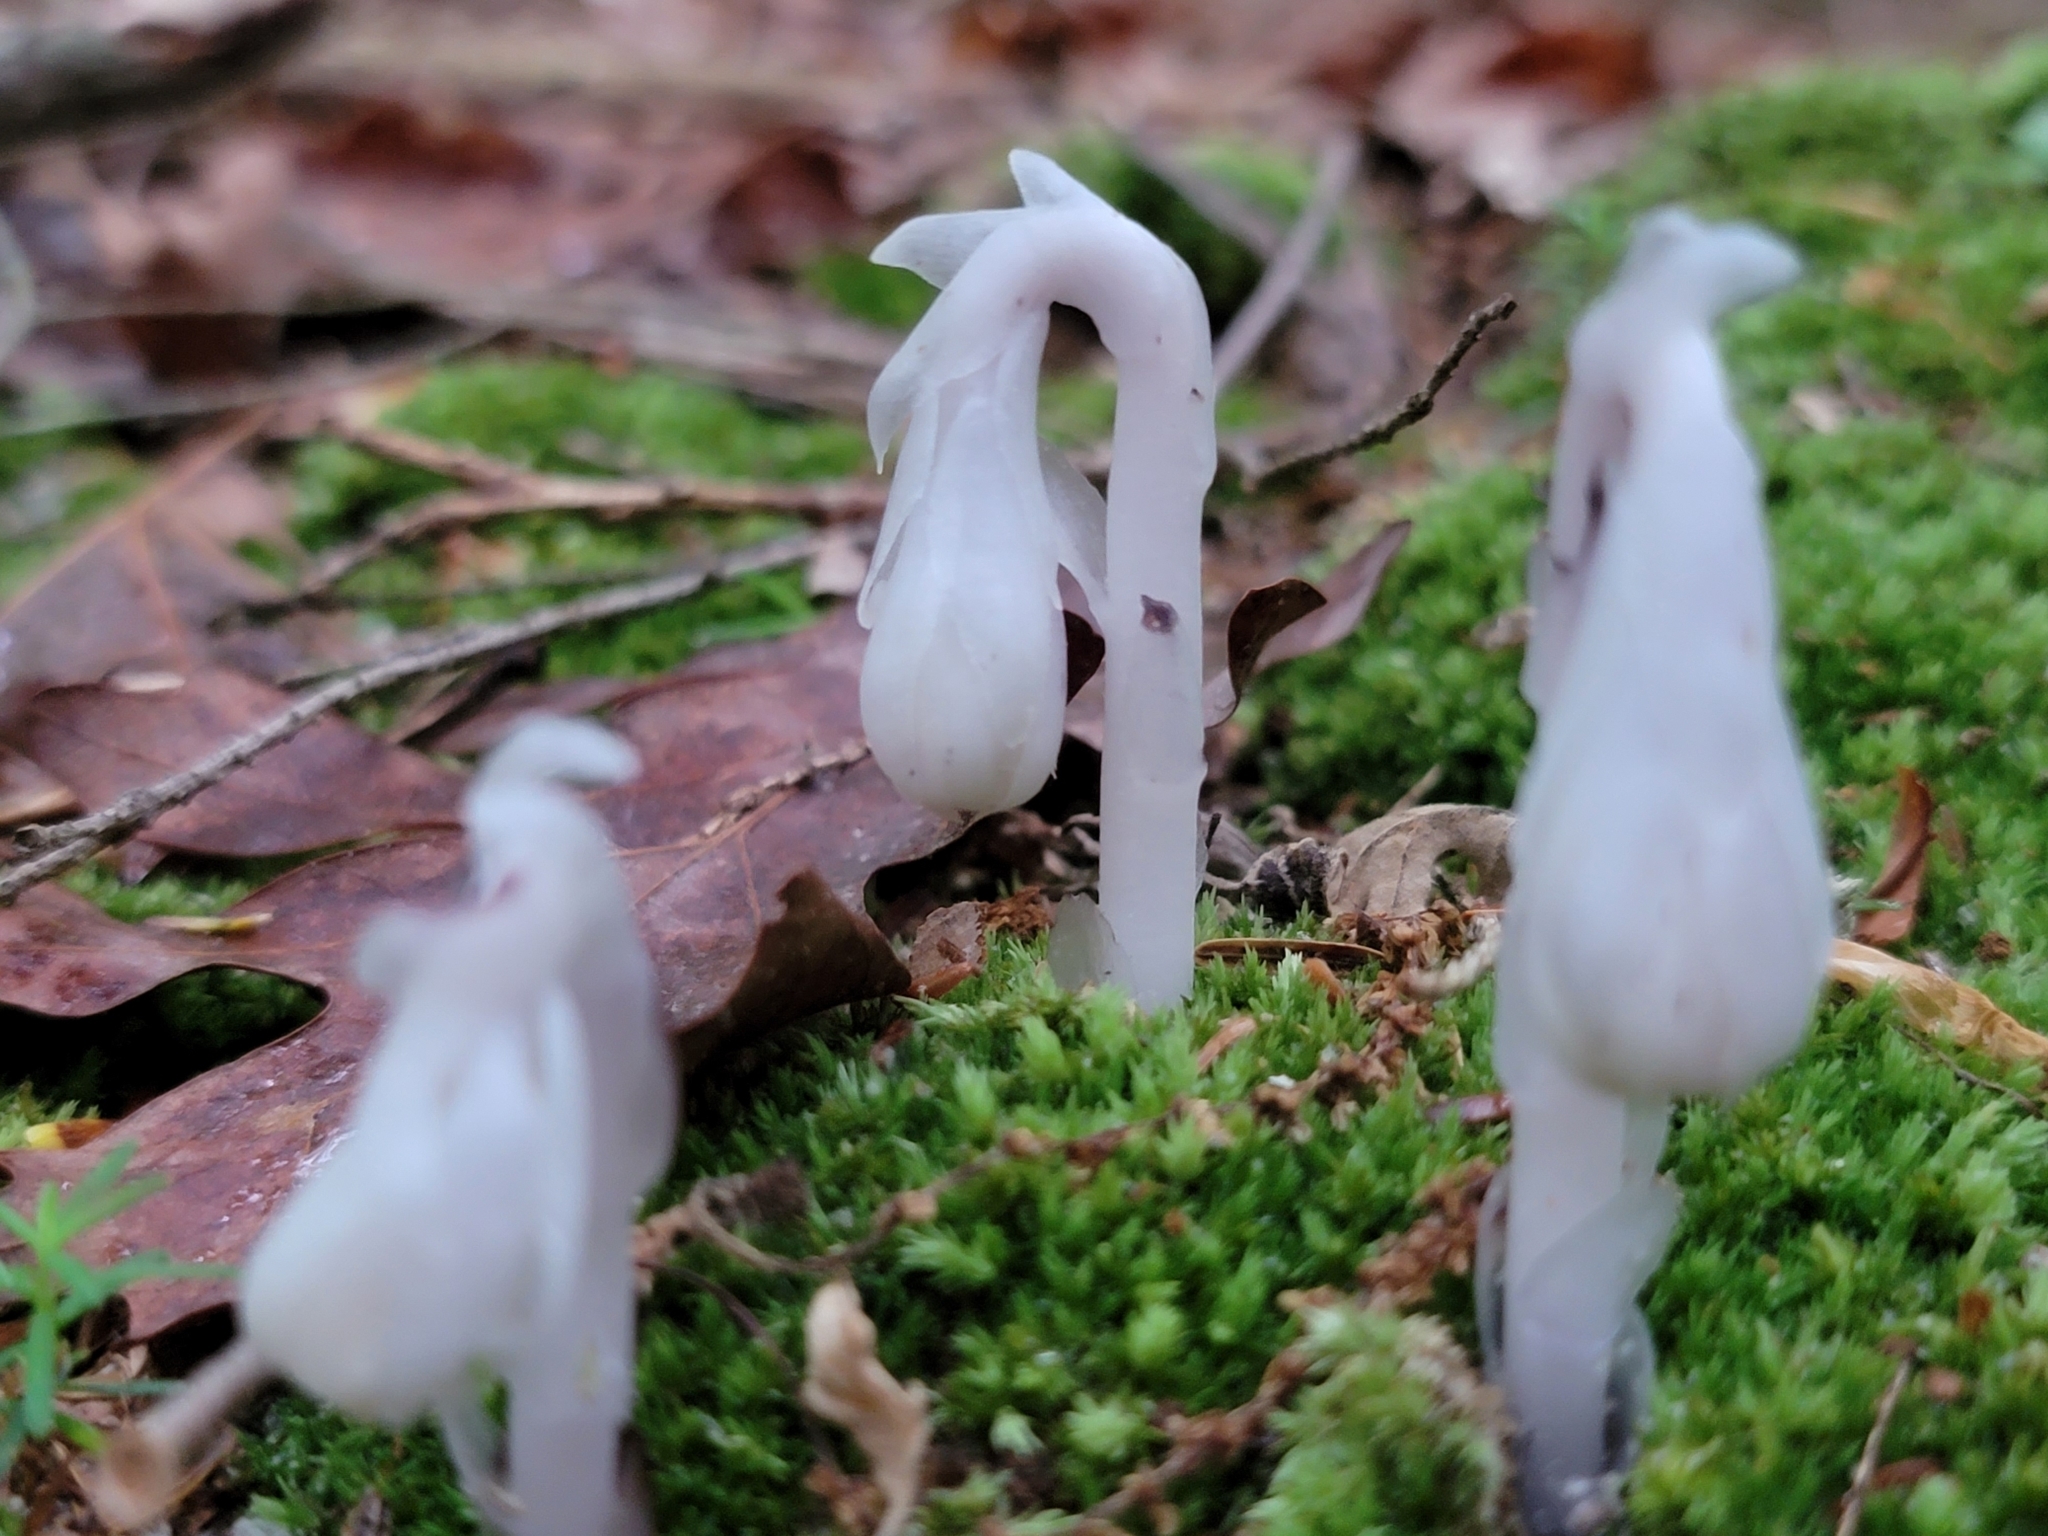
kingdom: Plantae
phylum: Tracheophyta
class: Magnoliopsida
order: Ericales
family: Ericaceae
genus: Monotropa
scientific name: Monotropa uniflora
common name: Convulsion root
